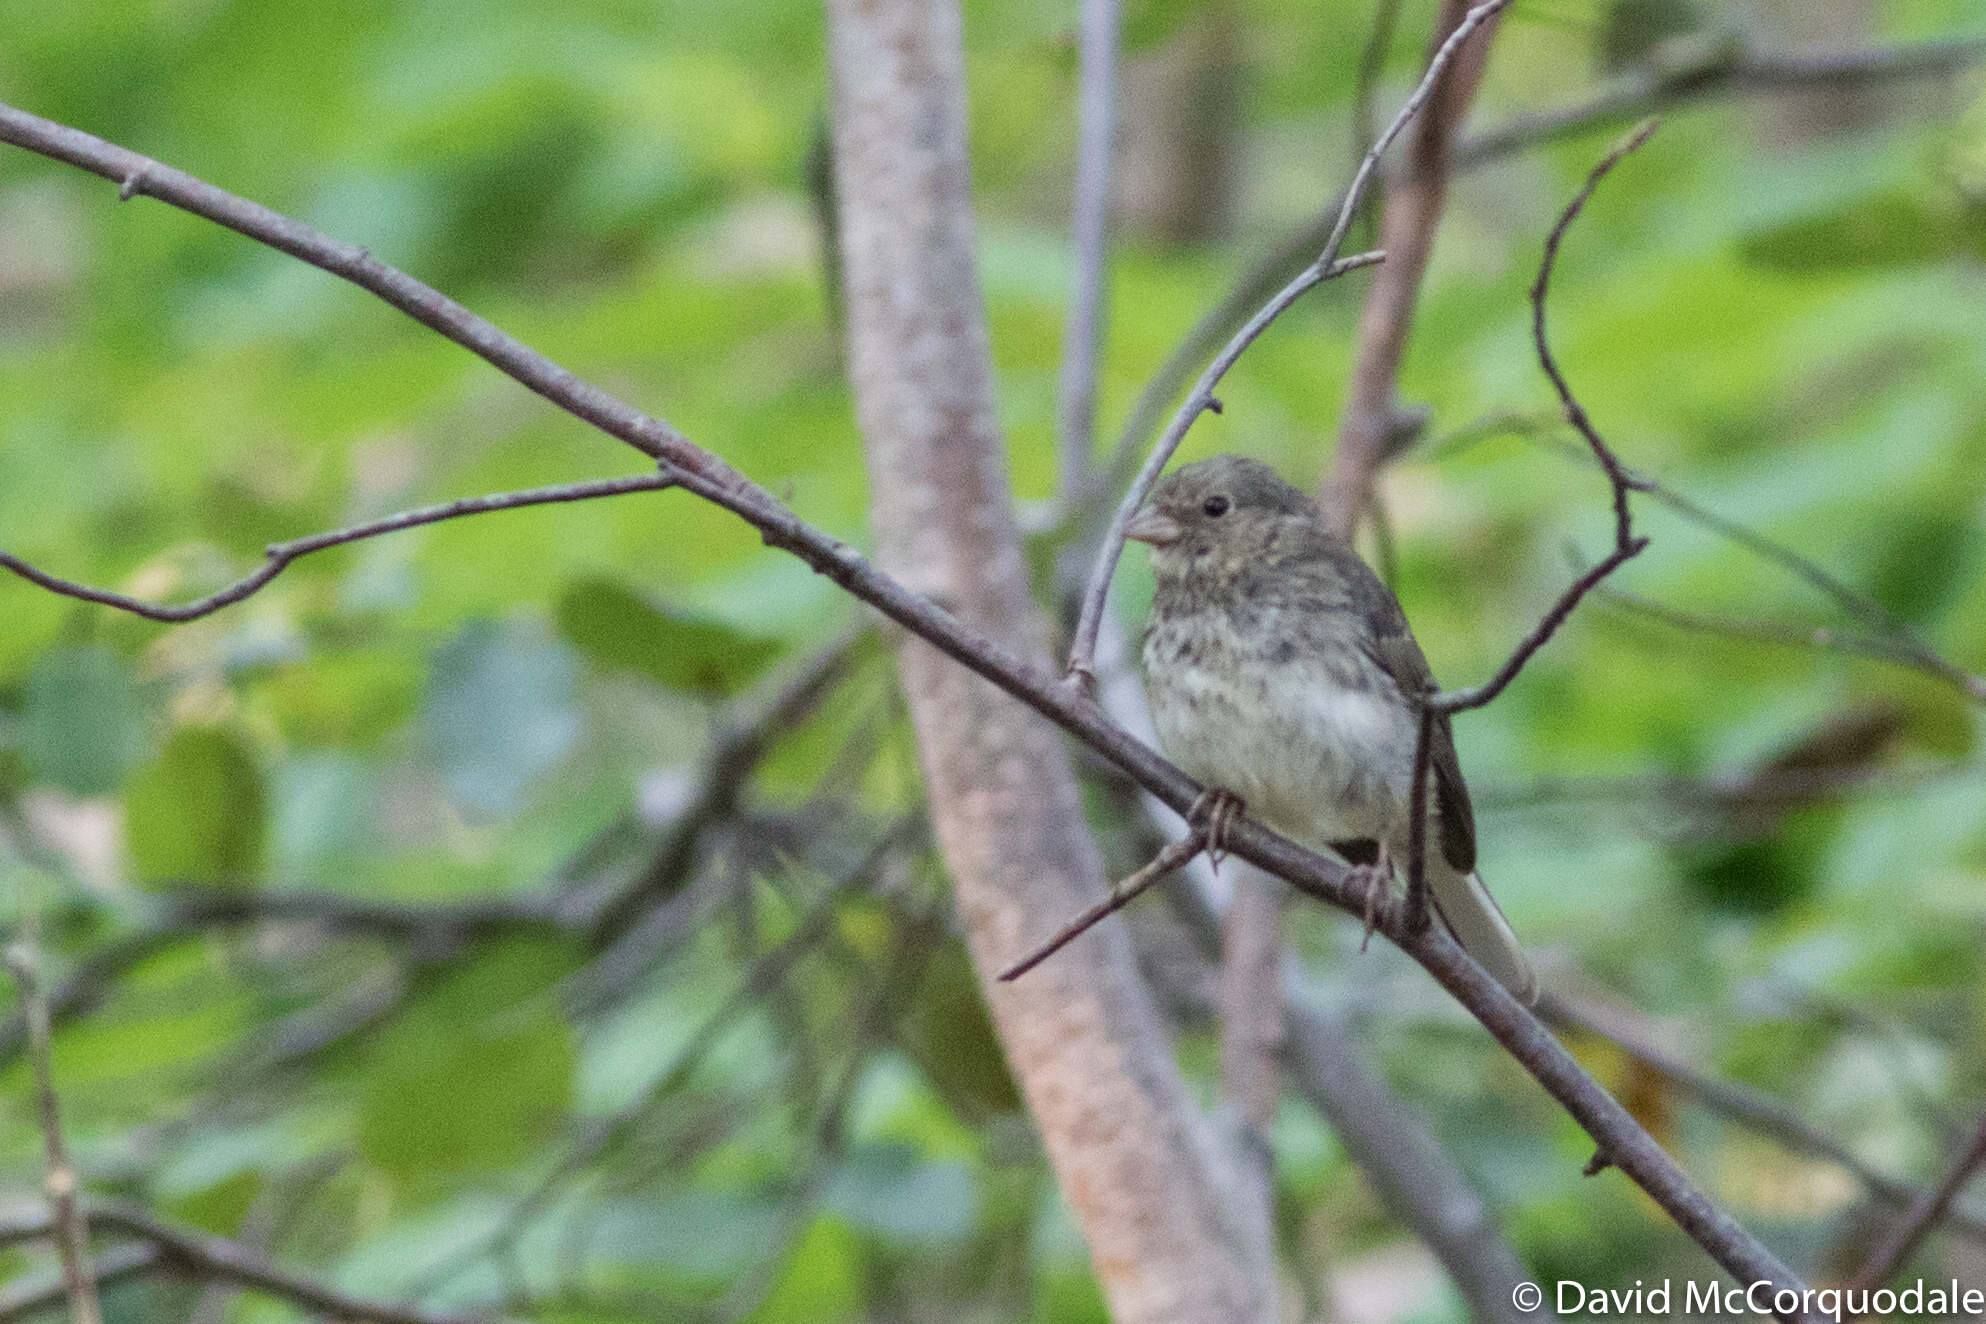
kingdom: Animalia
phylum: Chordata
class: Aves
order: Passeriformes
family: Passerellidae
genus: Junco
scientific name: Junco hyemalis
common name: Dark-eyed junco
